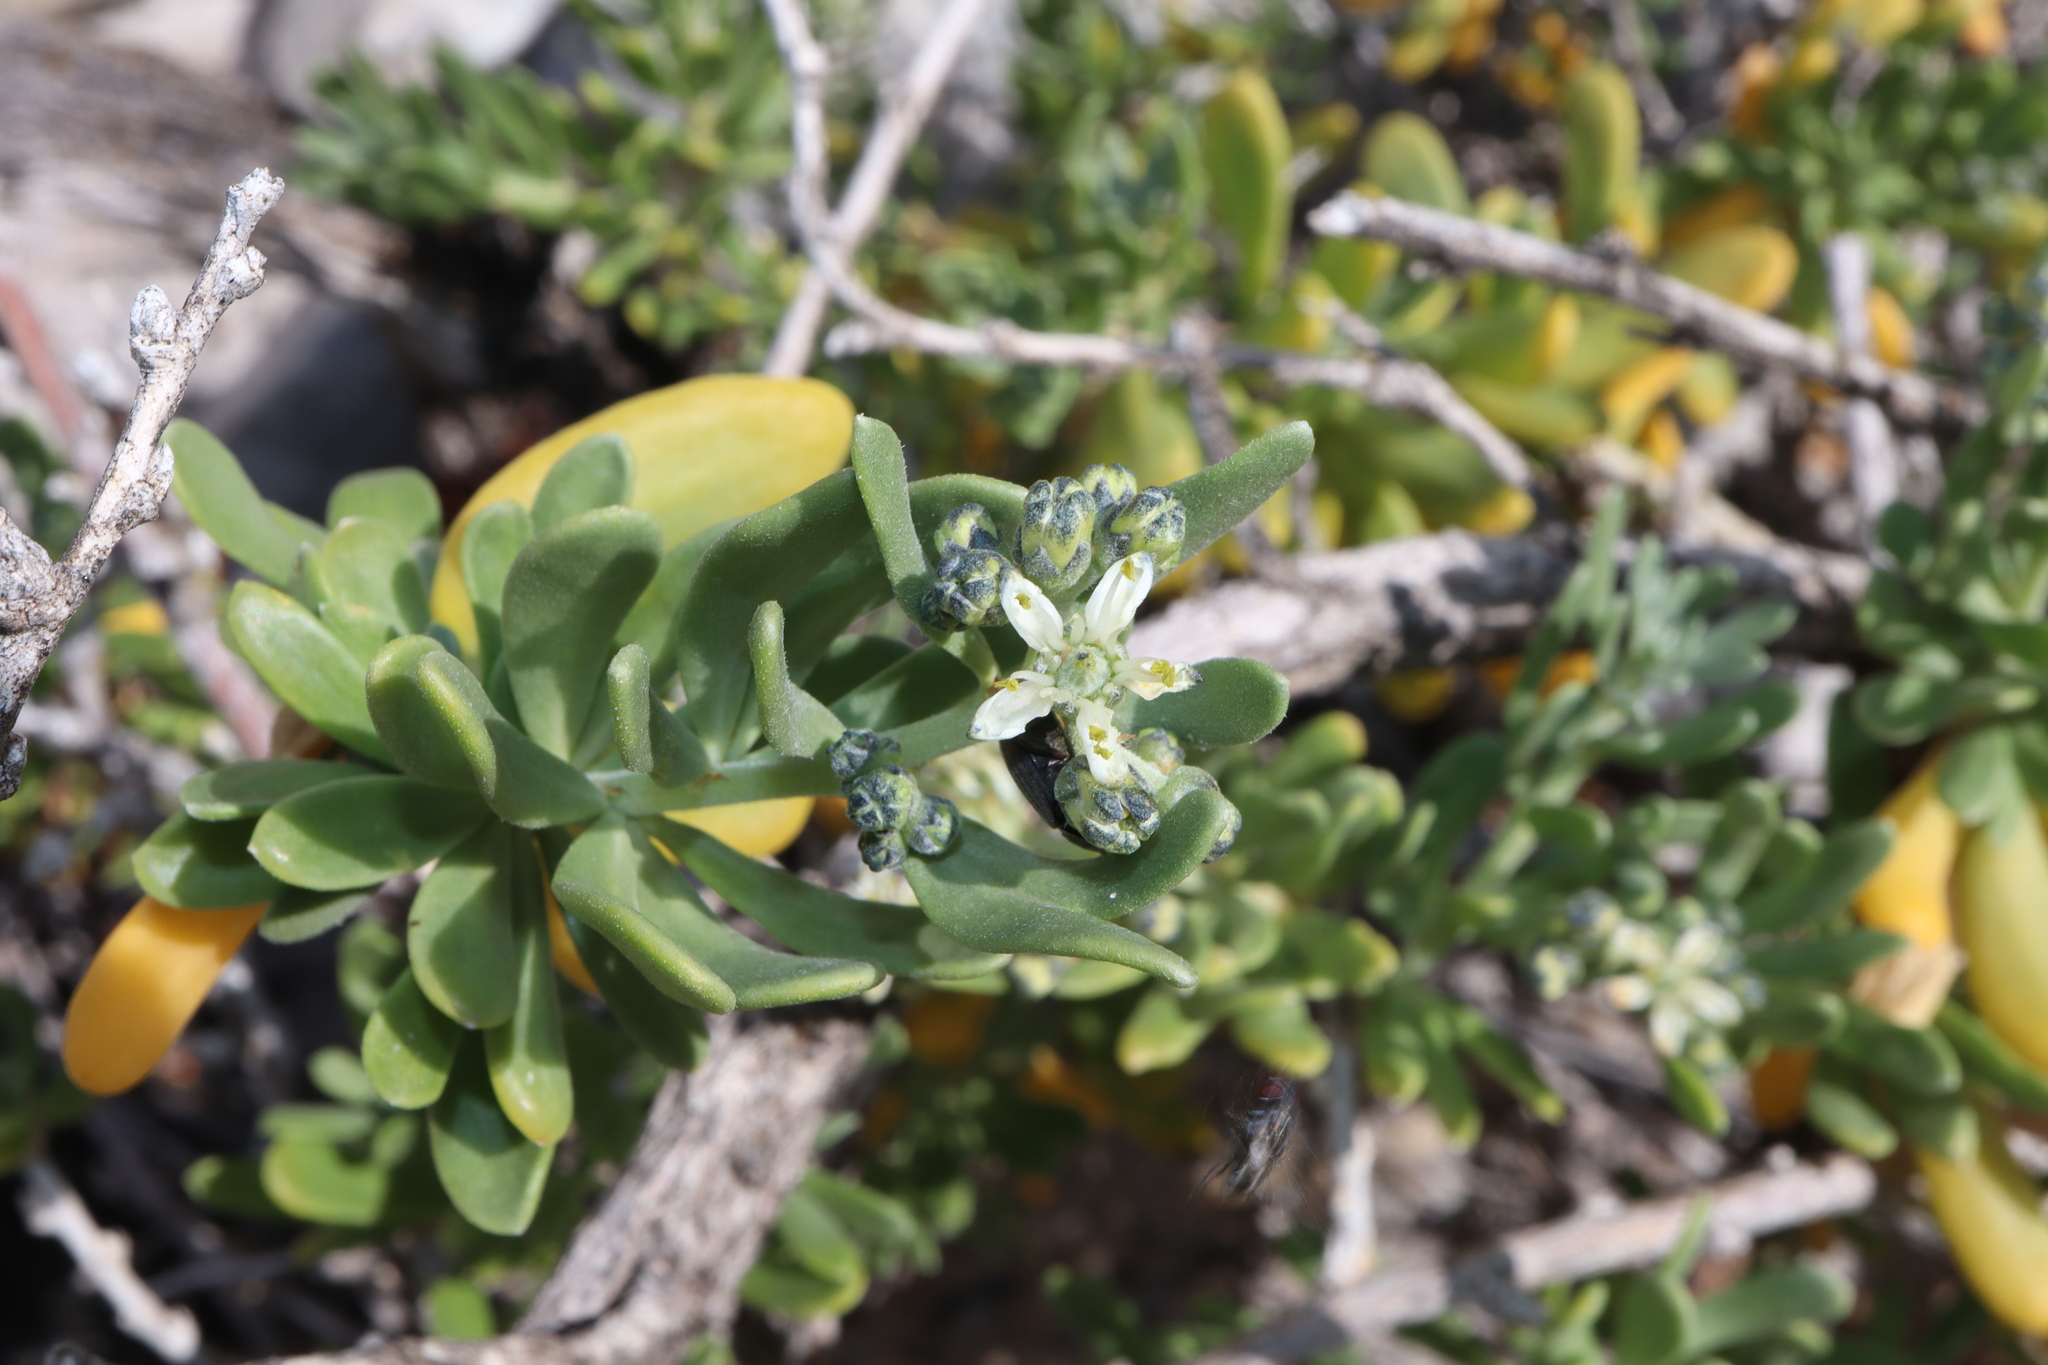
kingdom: Plantae
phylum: Tracheophyta
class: Magnoliopsida
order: Sapindales
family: Nitrariaceae
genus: Nitraria
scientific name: Nitraria billardierei
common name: Dillonbush
